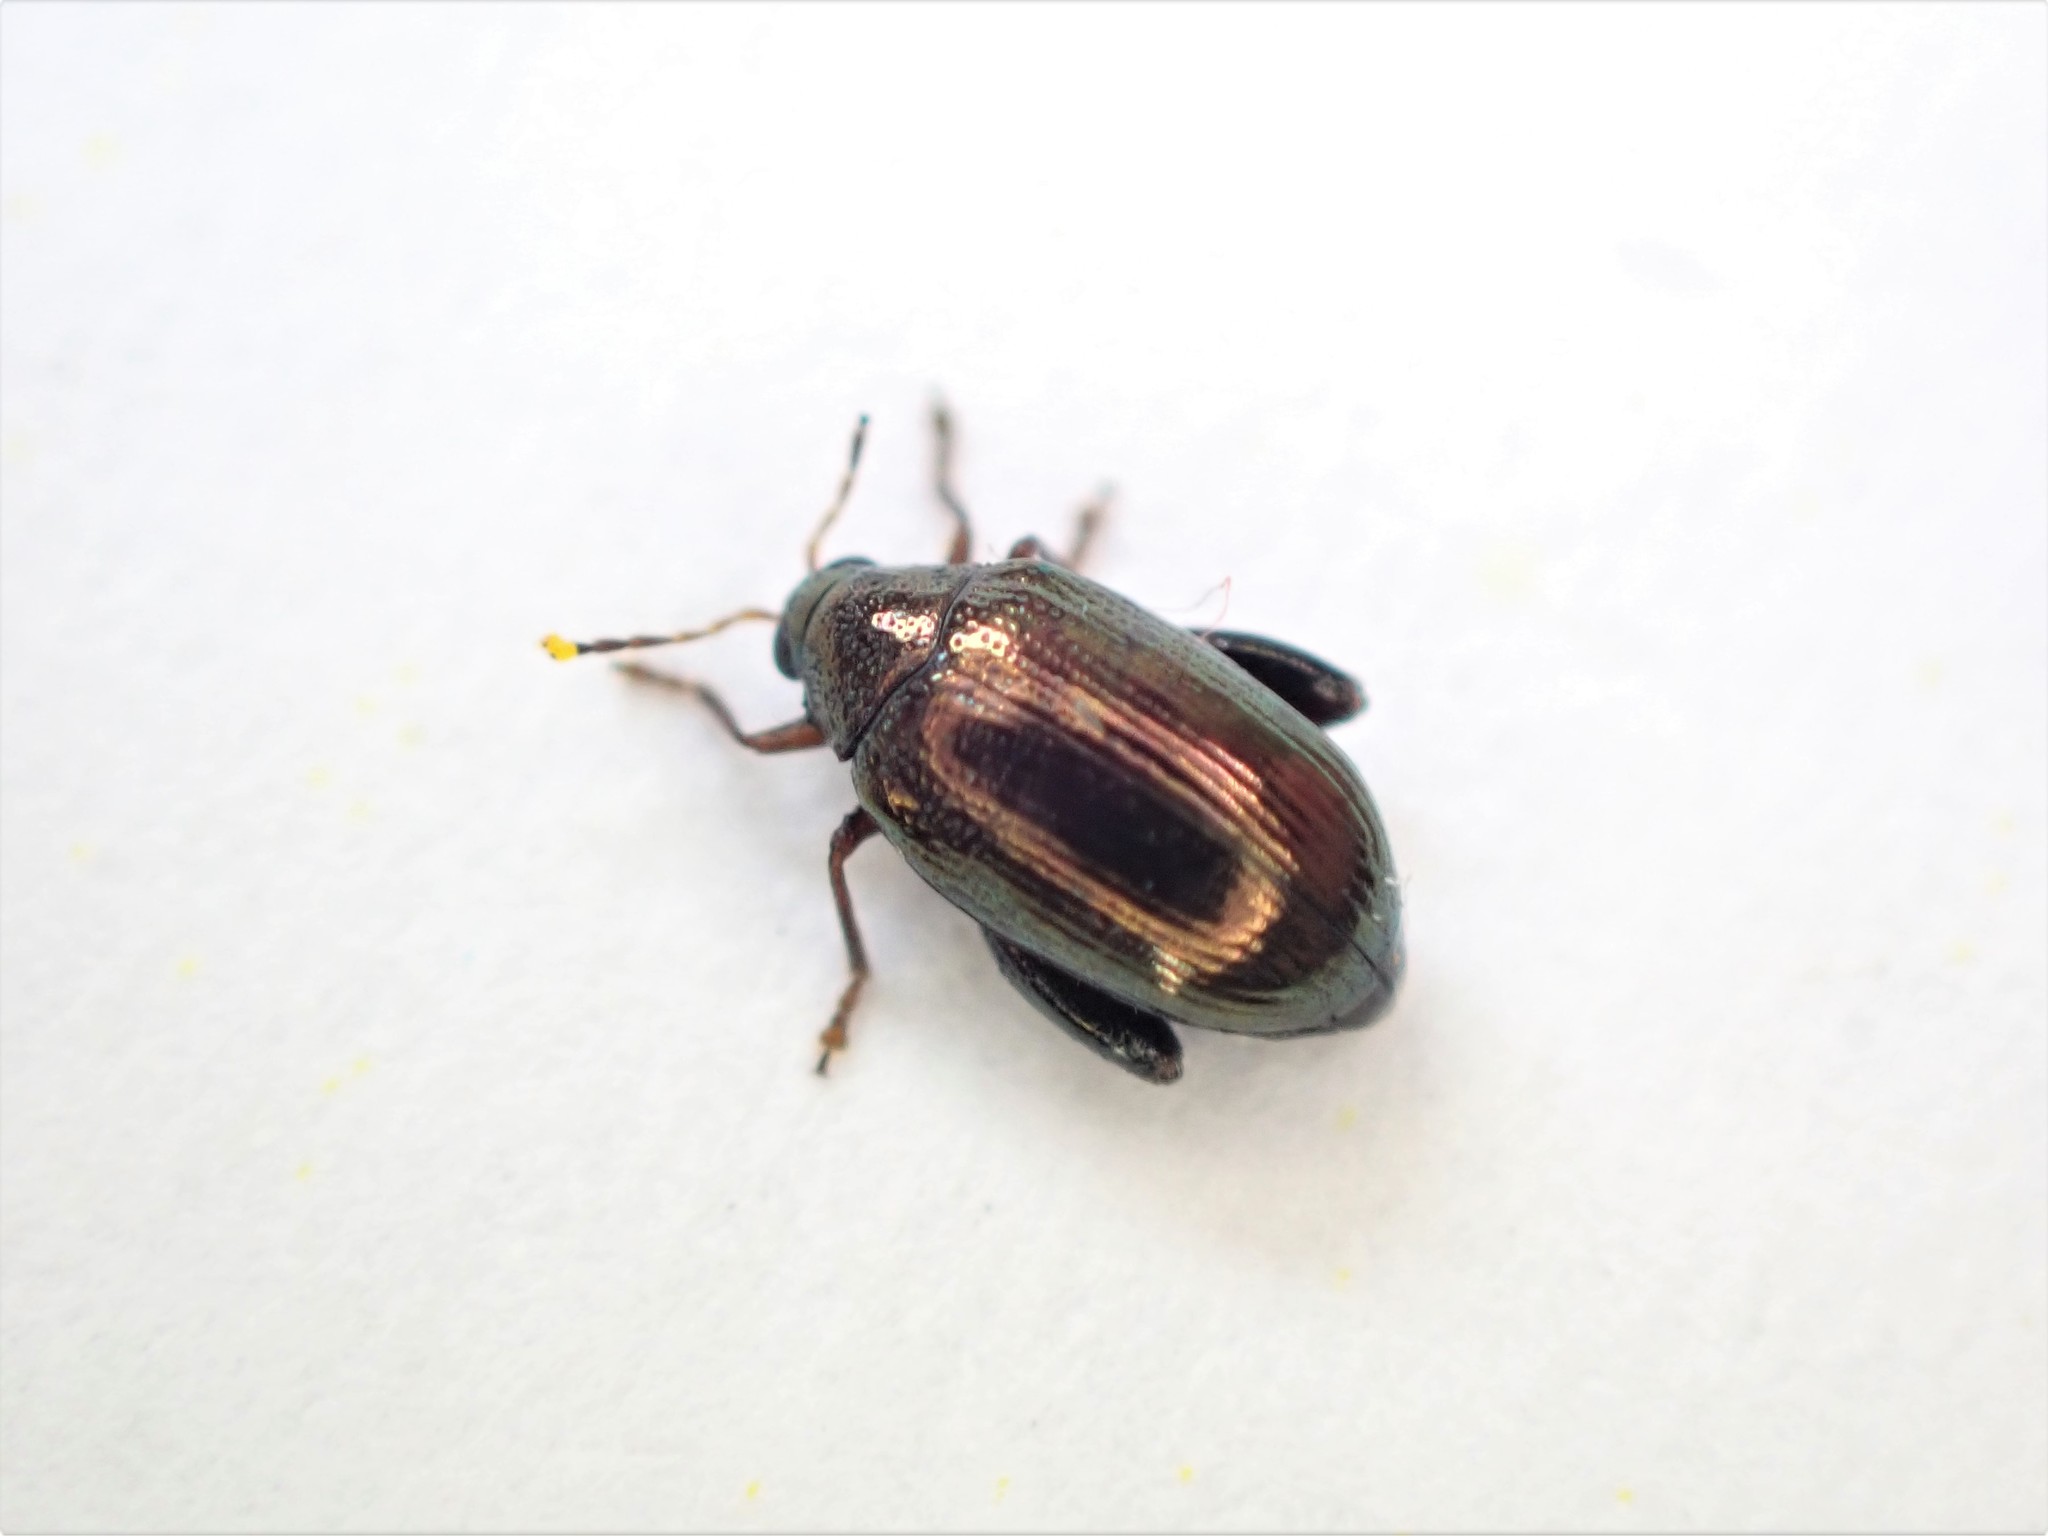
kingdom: Animalia
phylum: Arthropoda
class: Insecta
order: Coleoptera
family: Chrysomelidae
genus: Psylliodes
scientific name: Psylliodes brettinghami
